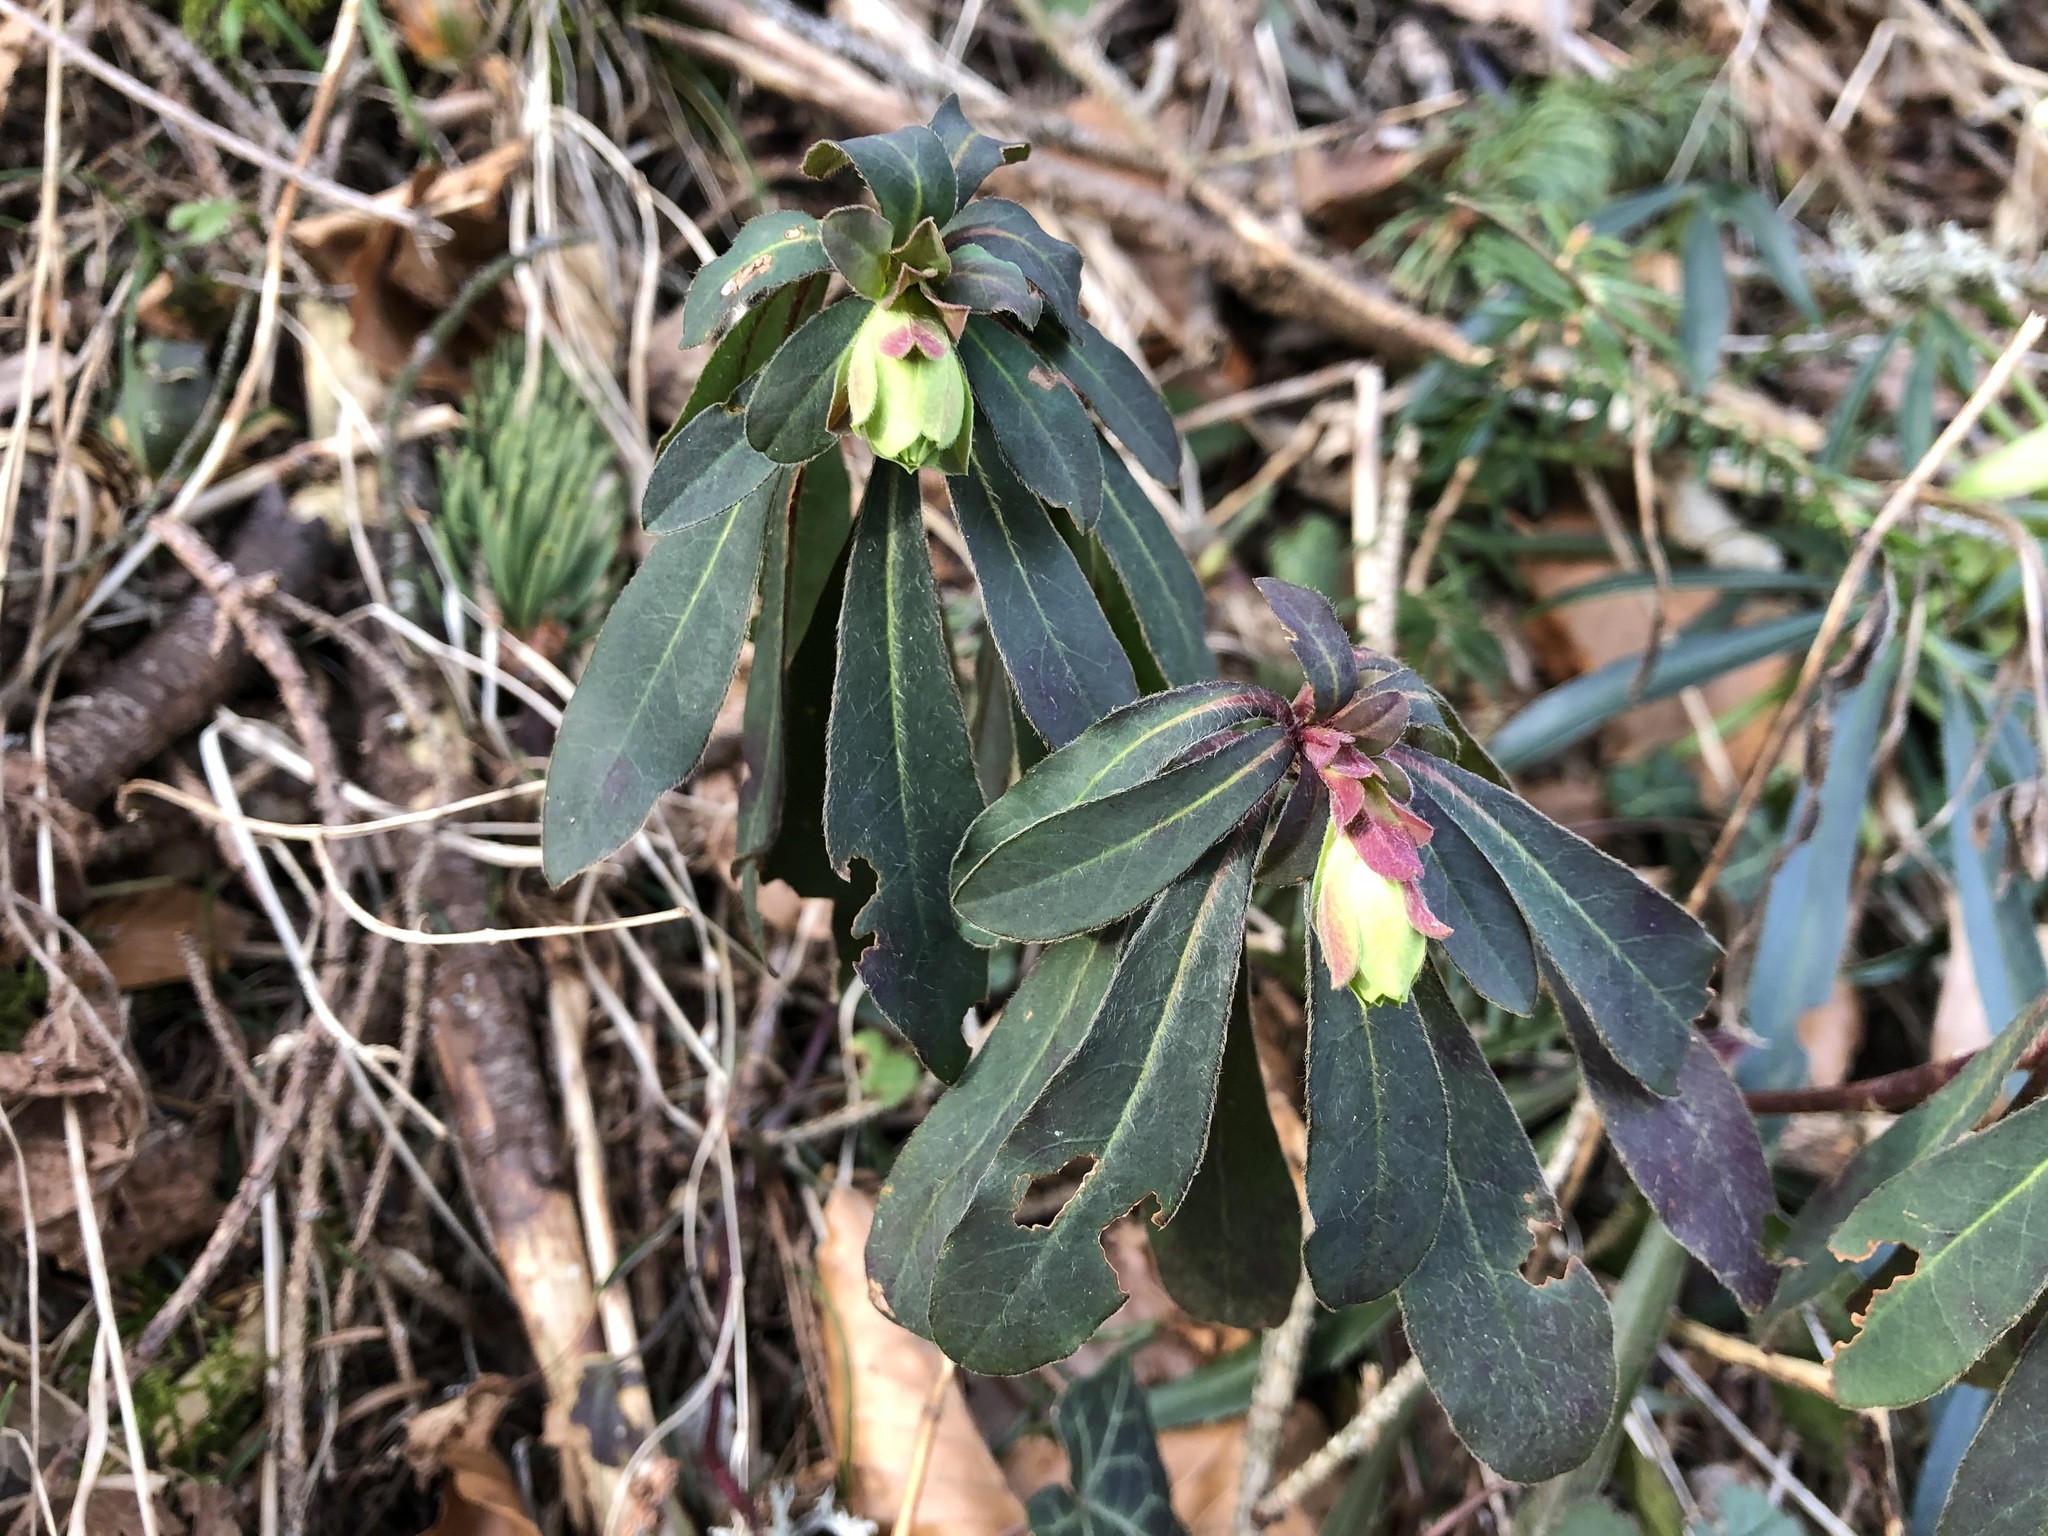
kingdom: Plantae
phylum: Tracheophyta
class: Magnoliopsida
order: Malpighiales
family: Euphorbiaceae
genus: Euphorbia
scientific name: Euphorbia amygdaloides
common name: Wood spurge
